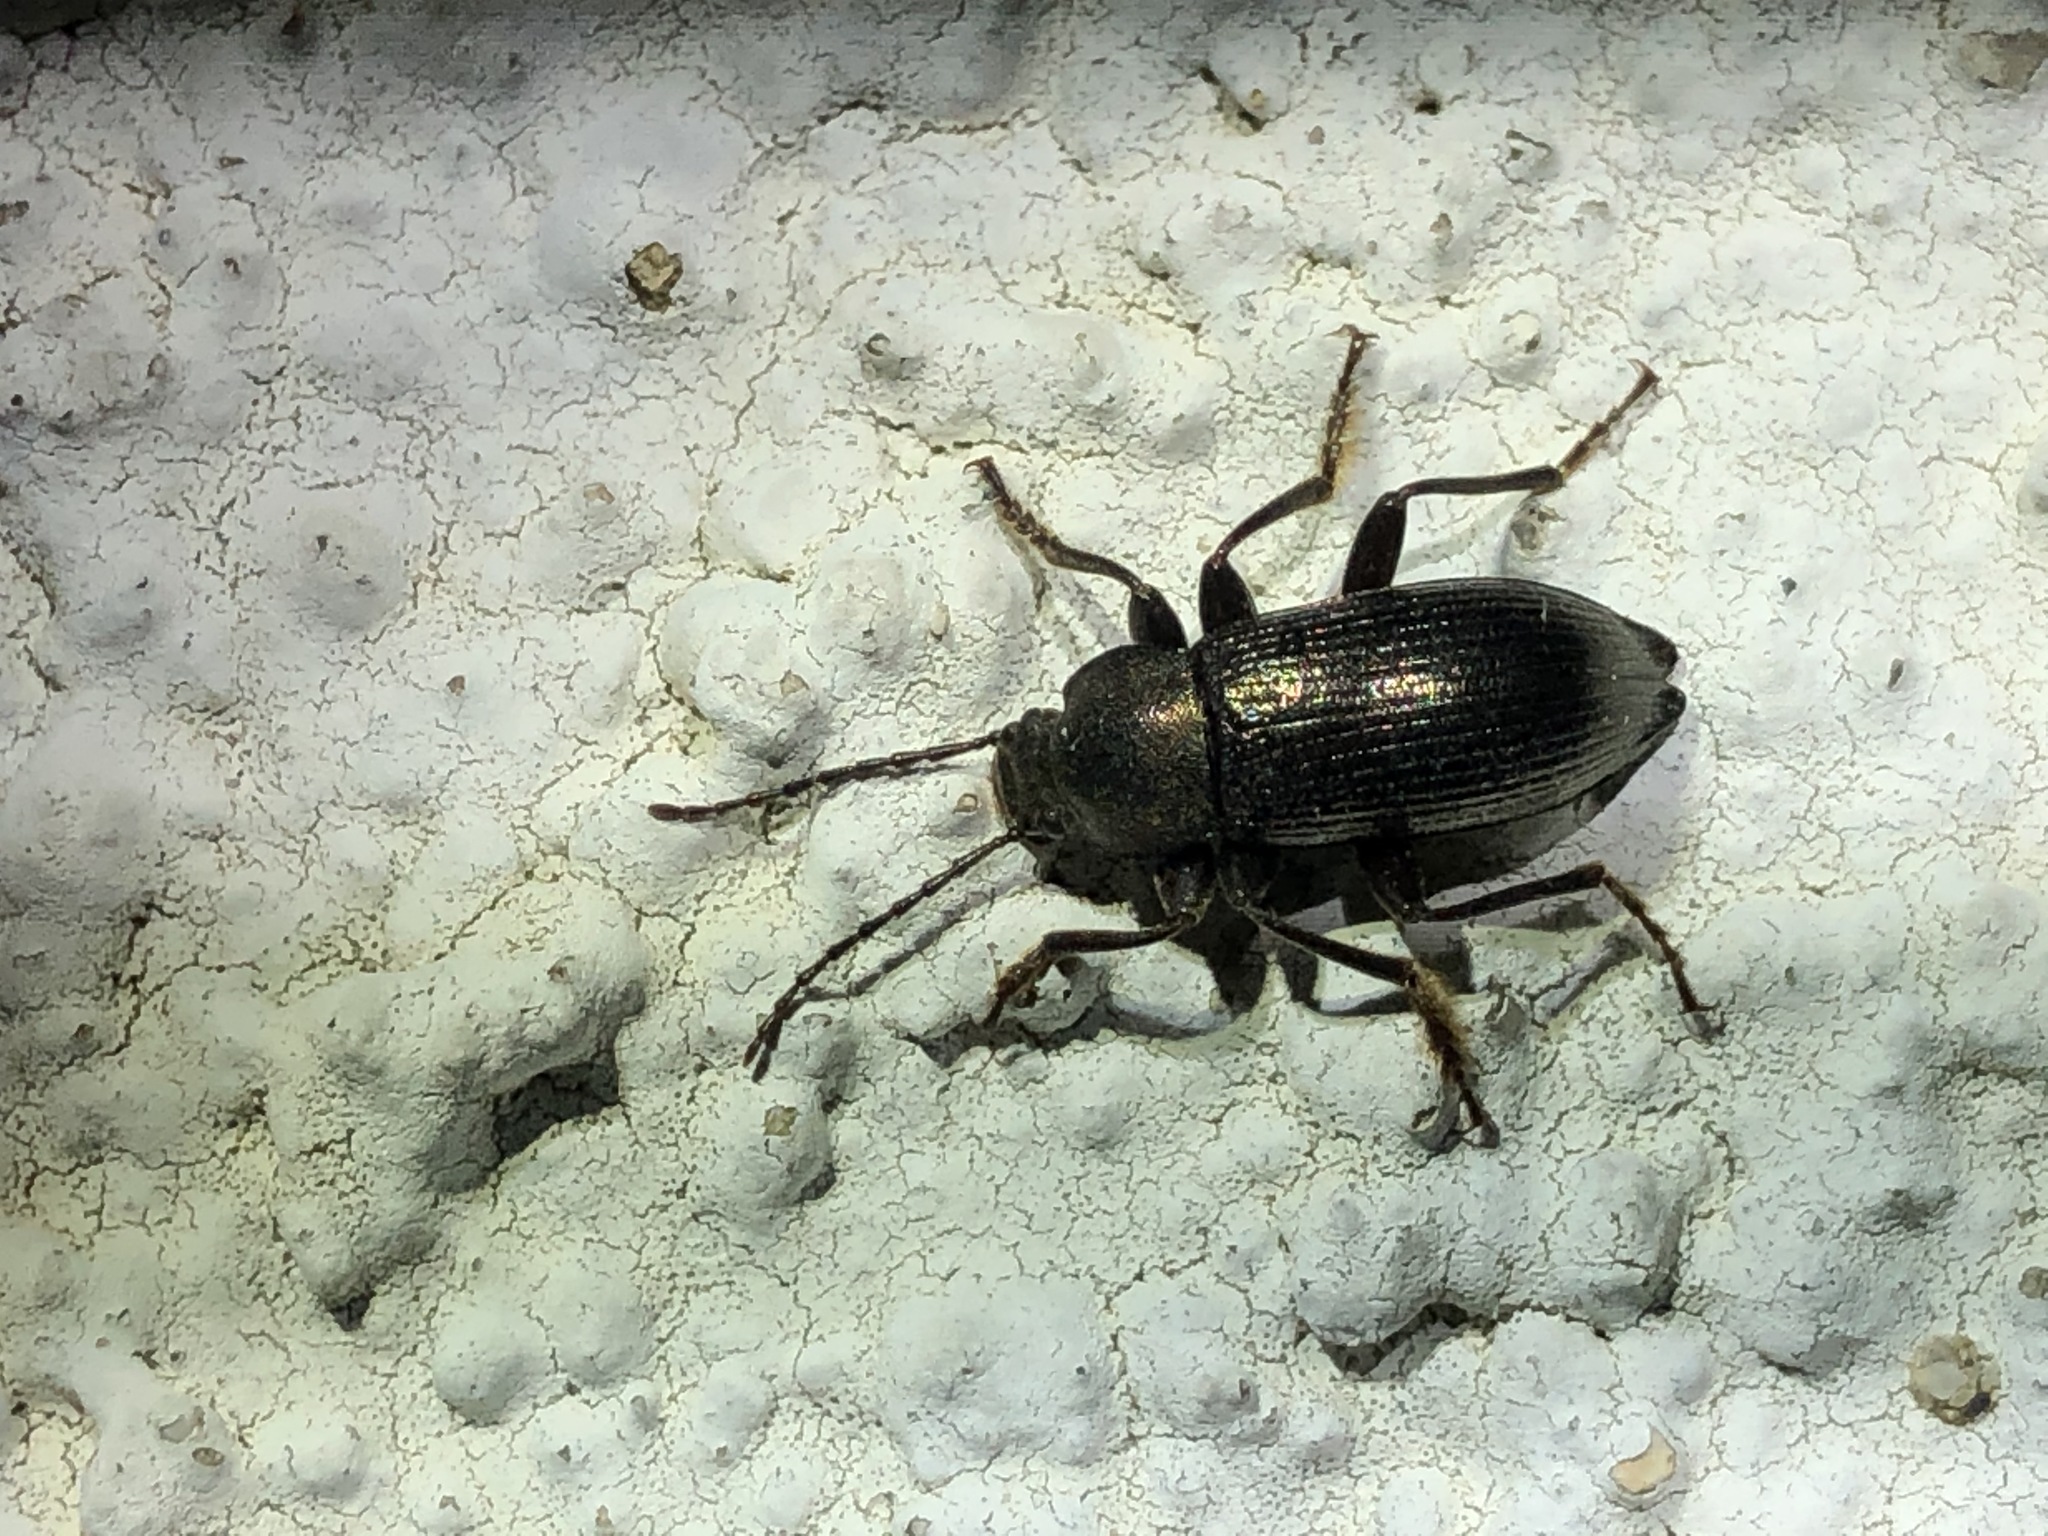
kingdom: Animalia
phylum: Arthropoda
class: Insecta
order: Coleoptera
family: Tenebrionidae
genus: Stenomax
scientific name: Stenomax aeneus
